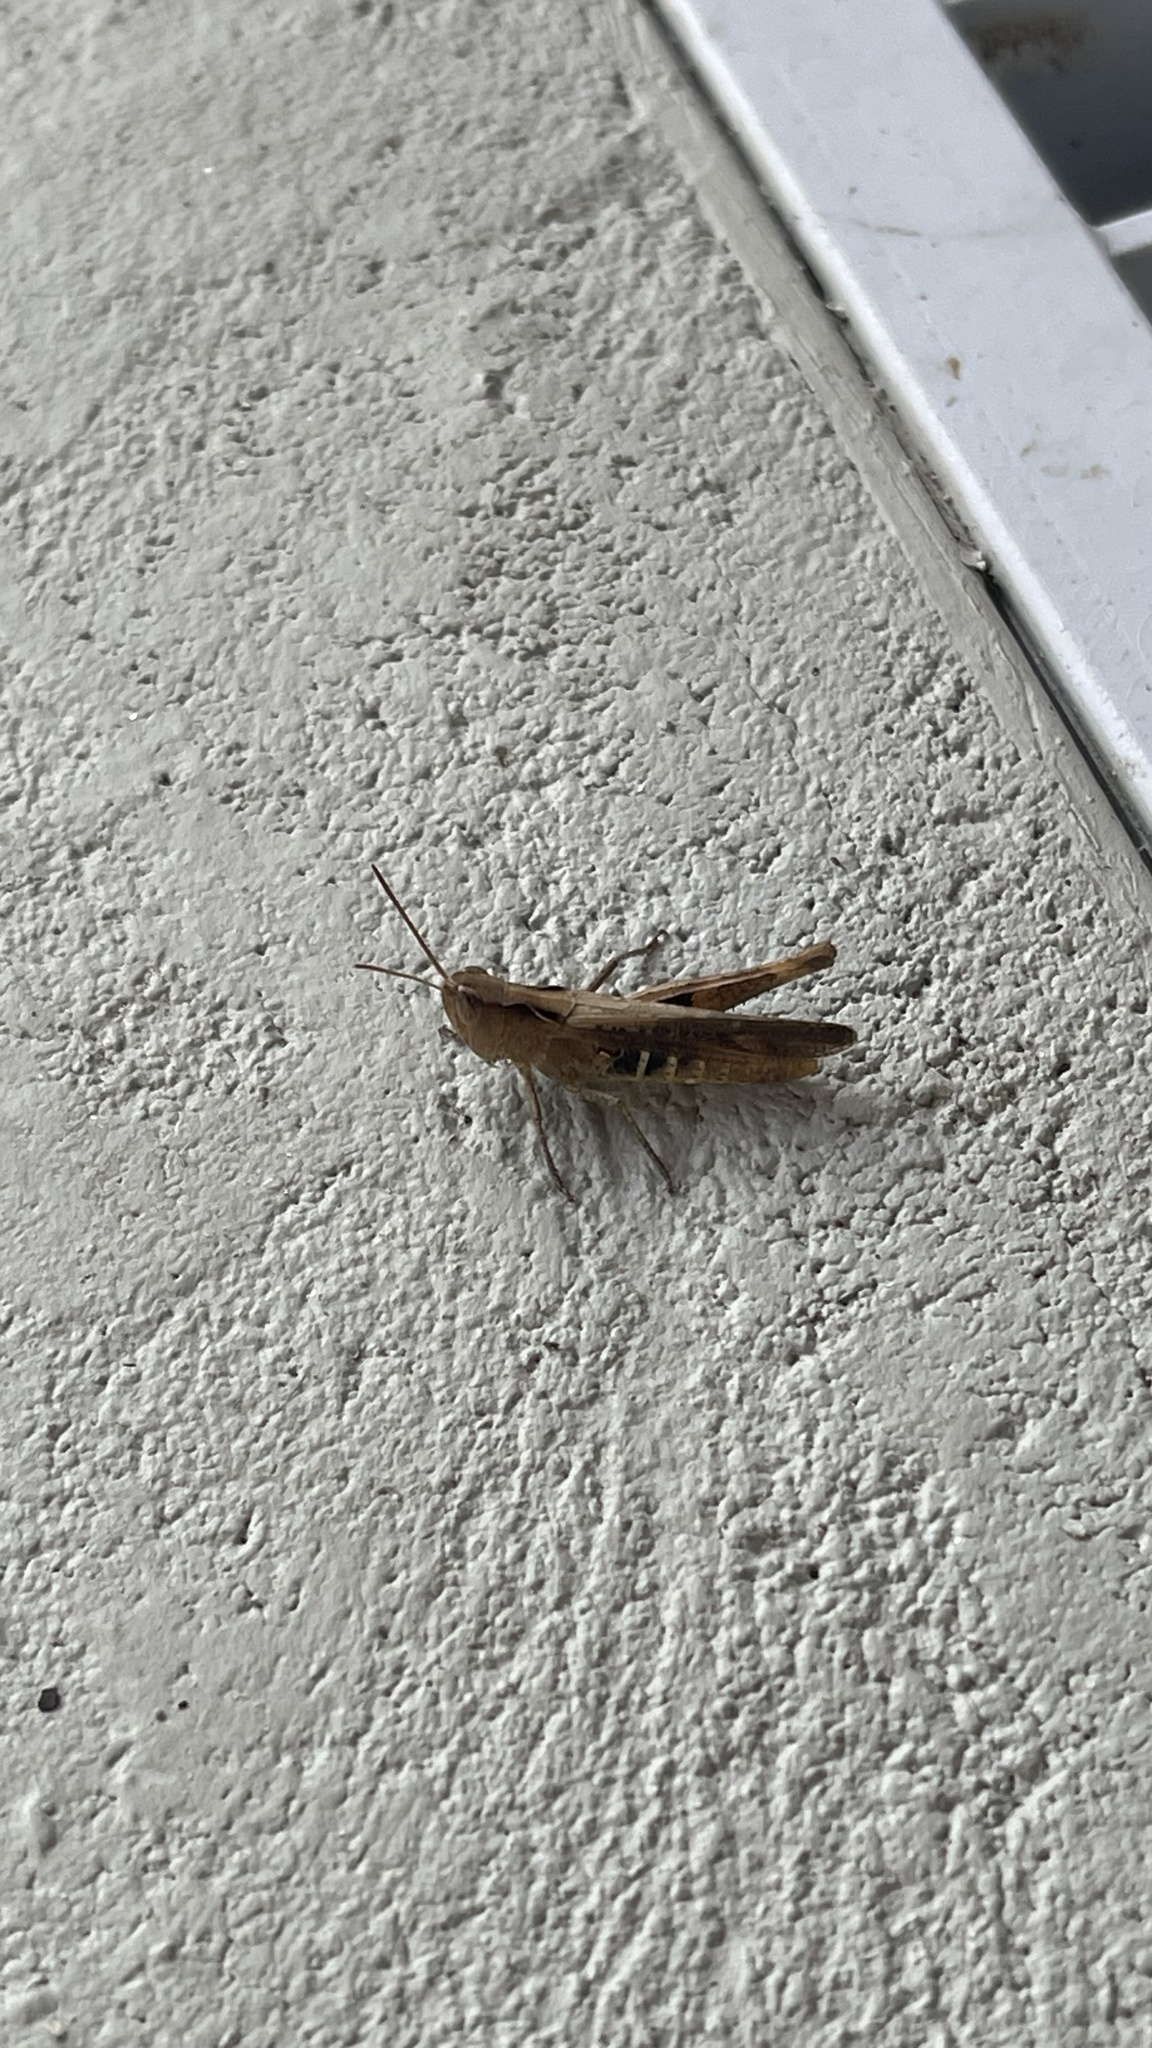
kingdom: Animalia
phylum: Arthropoda
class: Insecta
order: Orthoptera
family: Acrididae
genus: Chorthippus
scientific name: Chorthippus vagans
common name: Heath grasshopper
